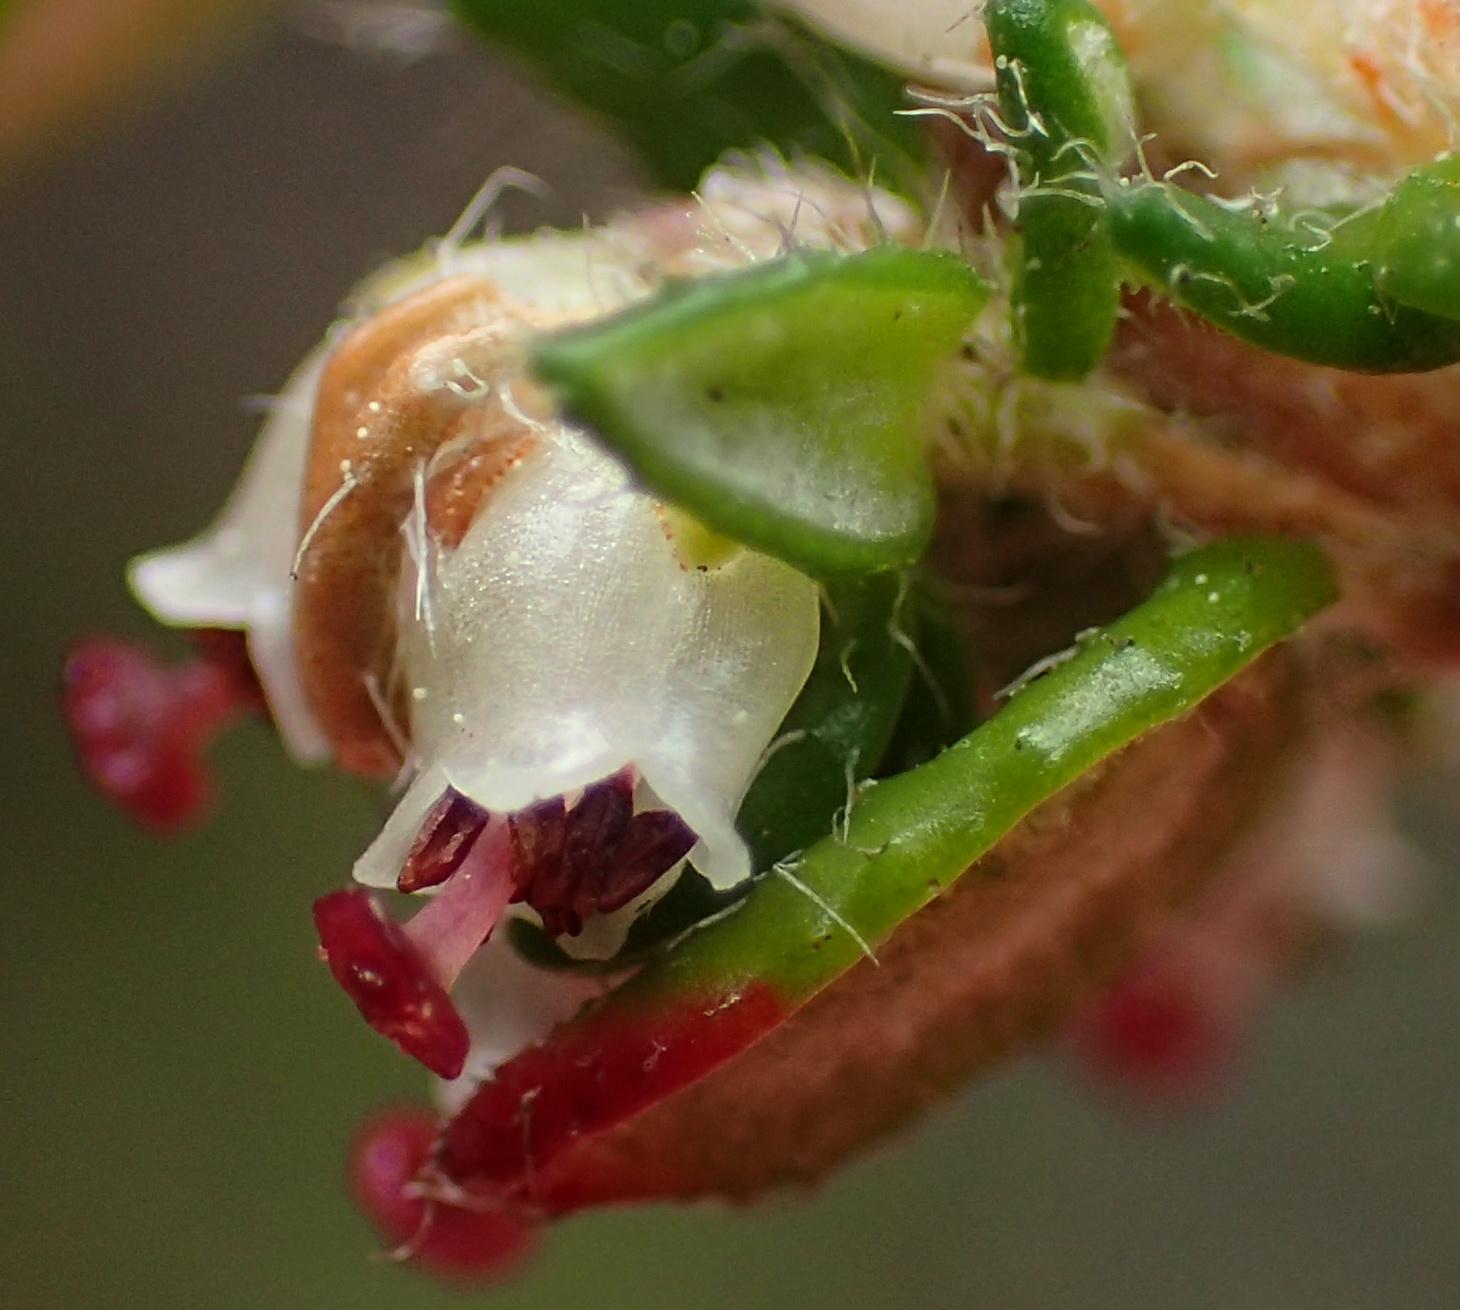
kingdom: Plantae
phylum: Tracheophyta
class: Magnoliopsida
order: Ericales
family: Ericaceae
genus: Erica
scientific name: Erica cordata
